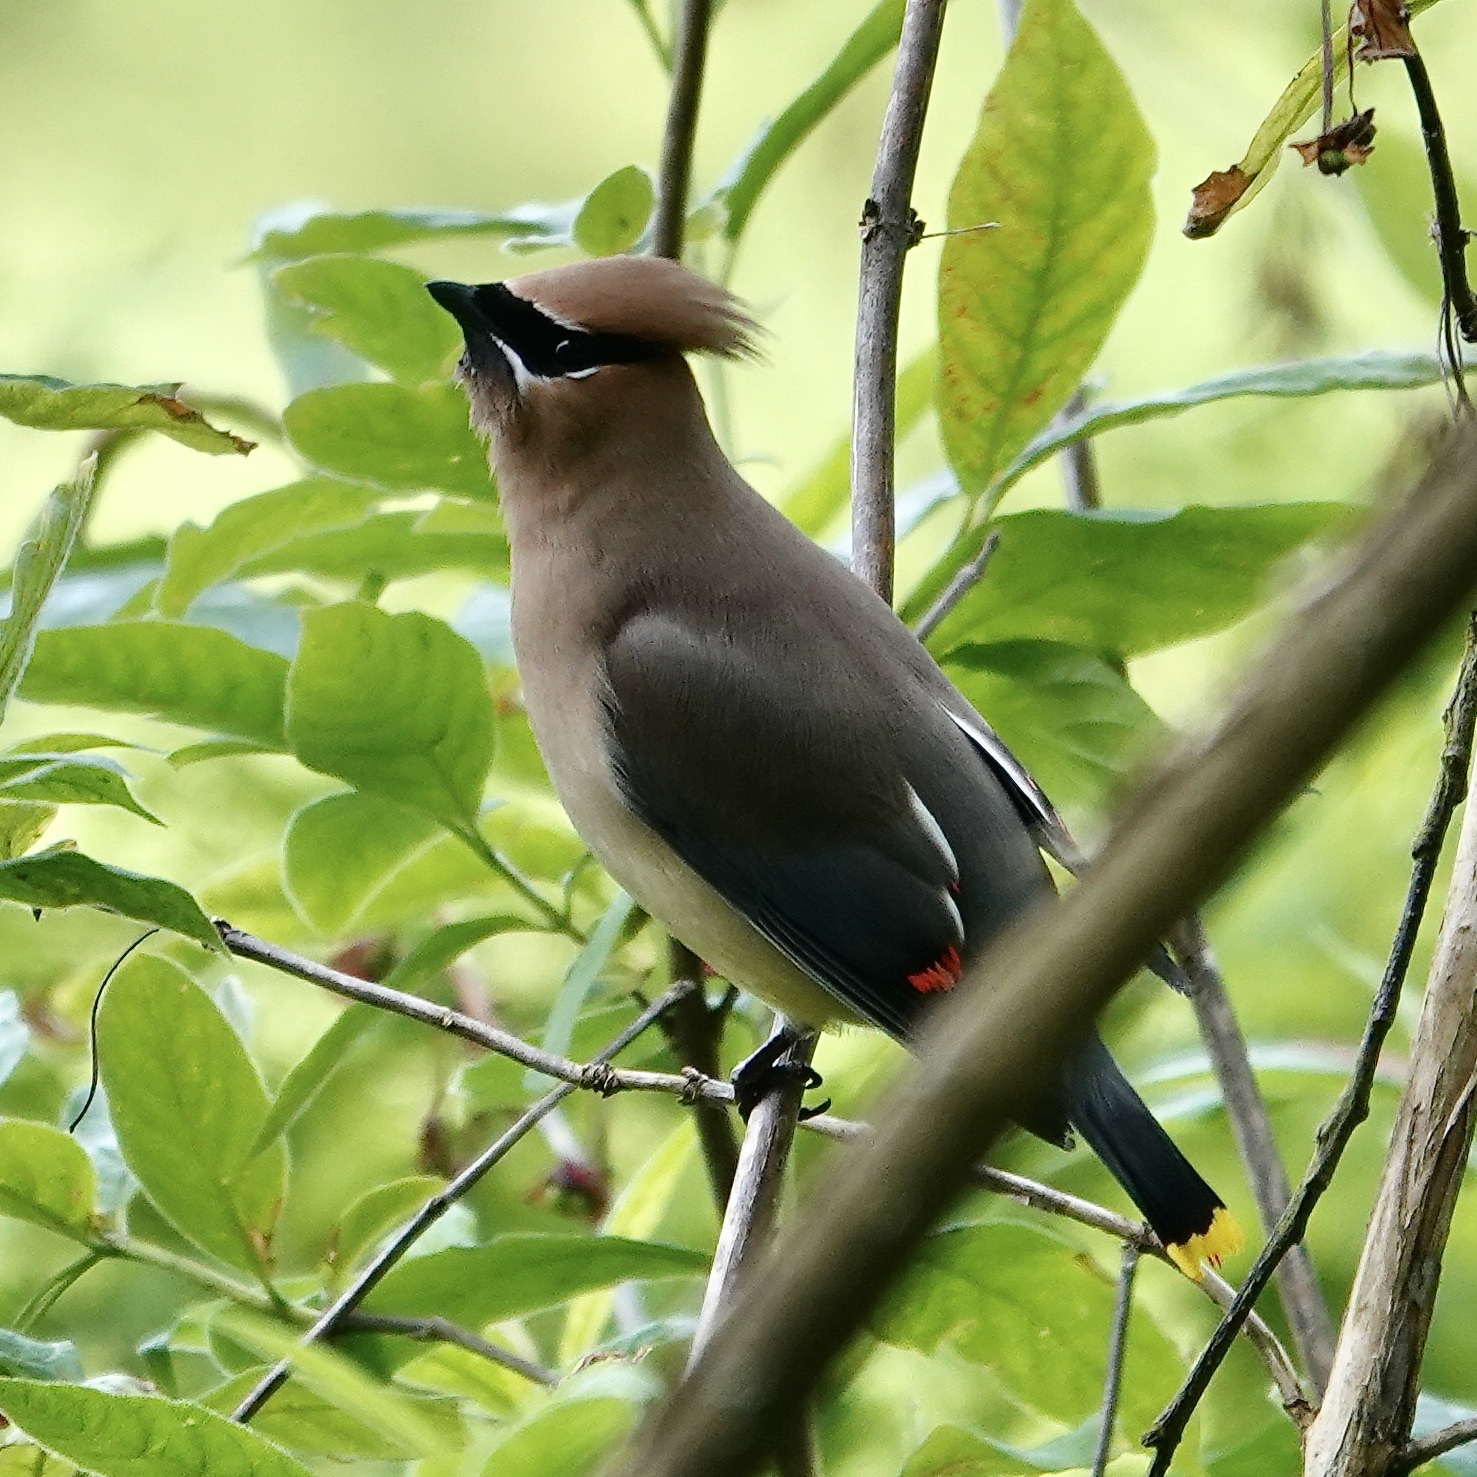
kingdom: Animalia
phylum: Chordata
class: Aves
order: Passeriformes
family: Bombycillidae
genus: Bombycilla
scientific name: Bombycilla cedrorum
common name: Cedar waxwing
